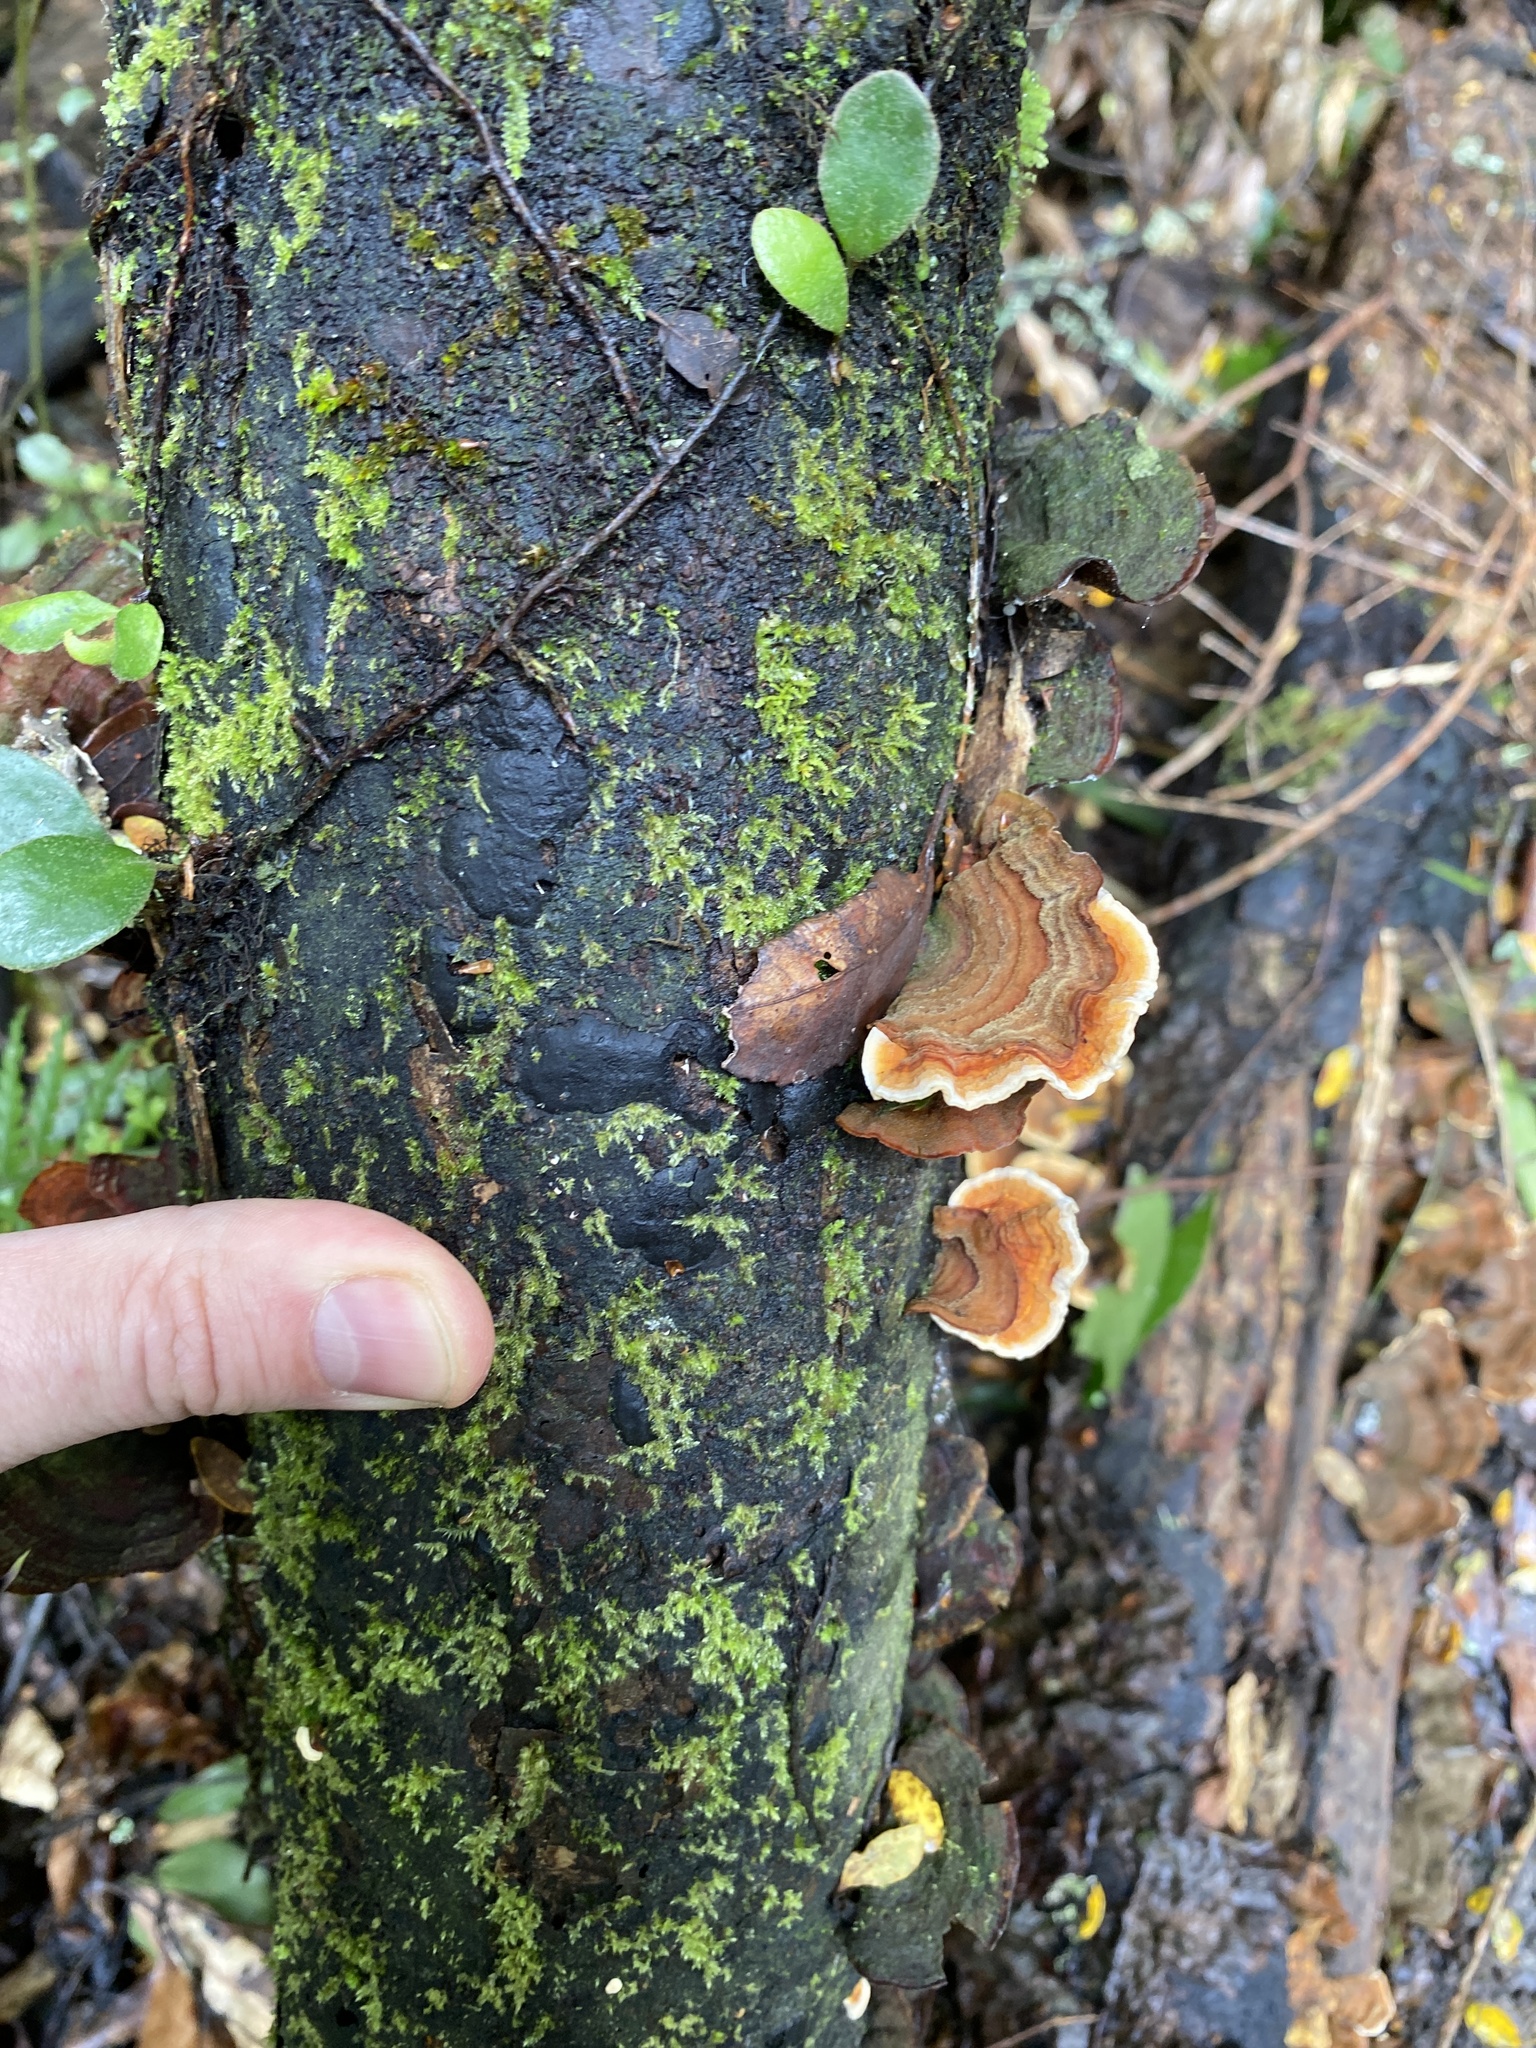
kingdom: Fungi
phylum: Basidiomycota
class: Agaricomycetes
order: Russulales
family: Stereaceae
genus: Stereum
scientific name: Stereum versicolor
